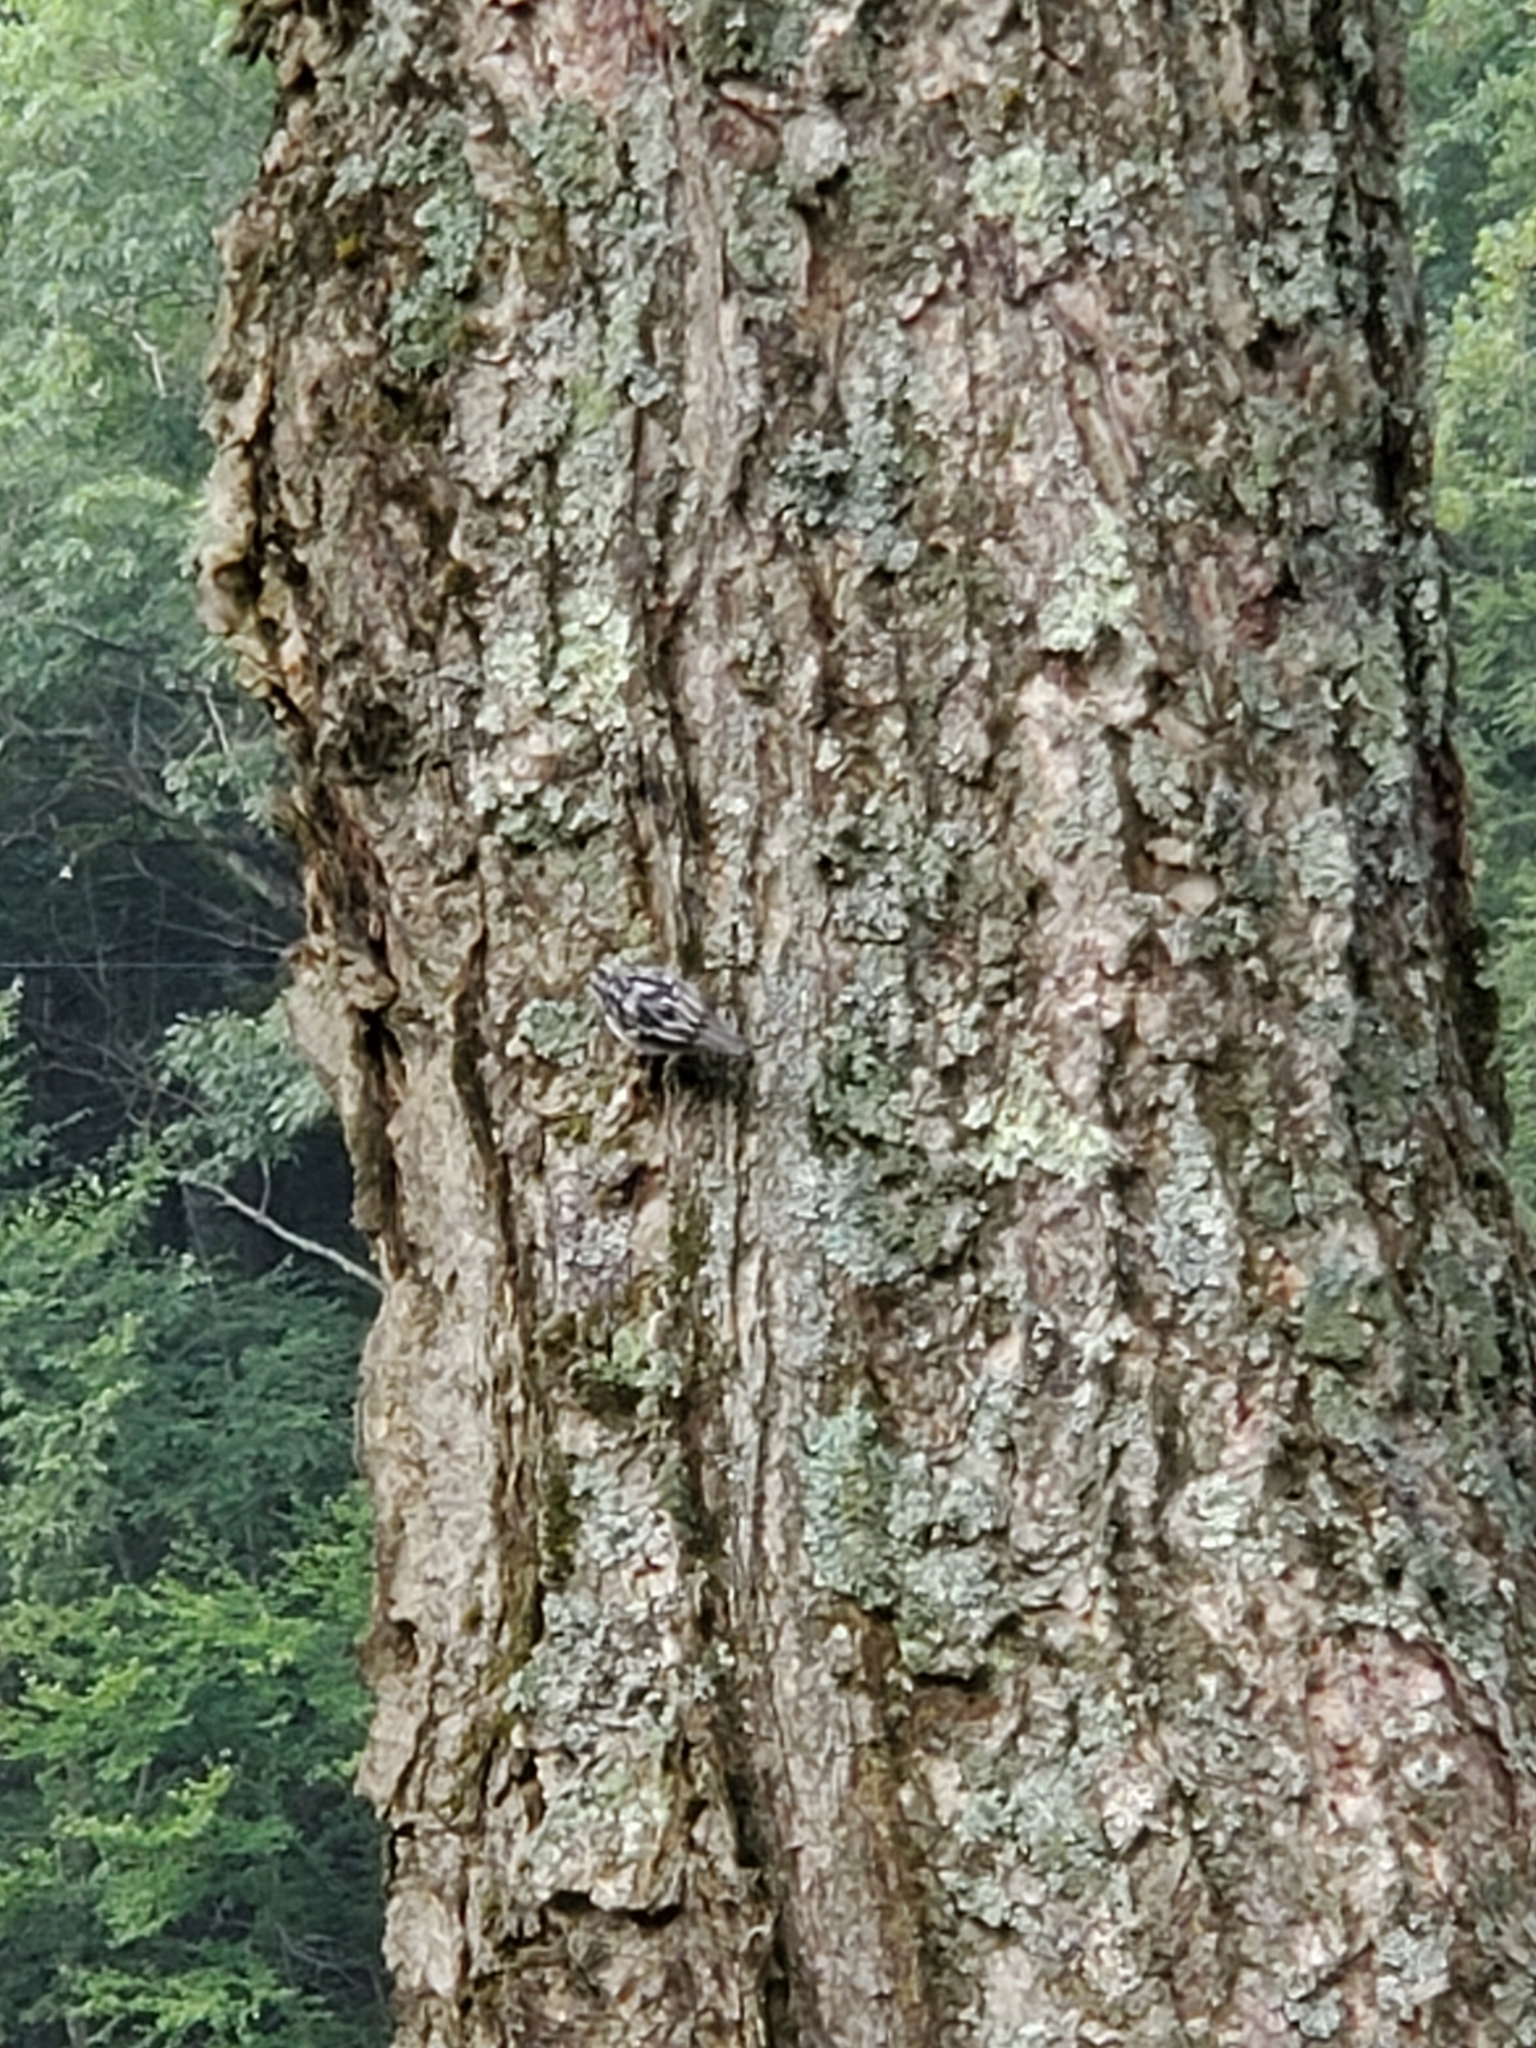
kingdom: Animalia
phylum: Chordata
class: Aves
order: Passeriformes
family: Parulidae
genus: Mniotilta
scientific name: Mniotilta varia
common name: Black-and-white warbler
